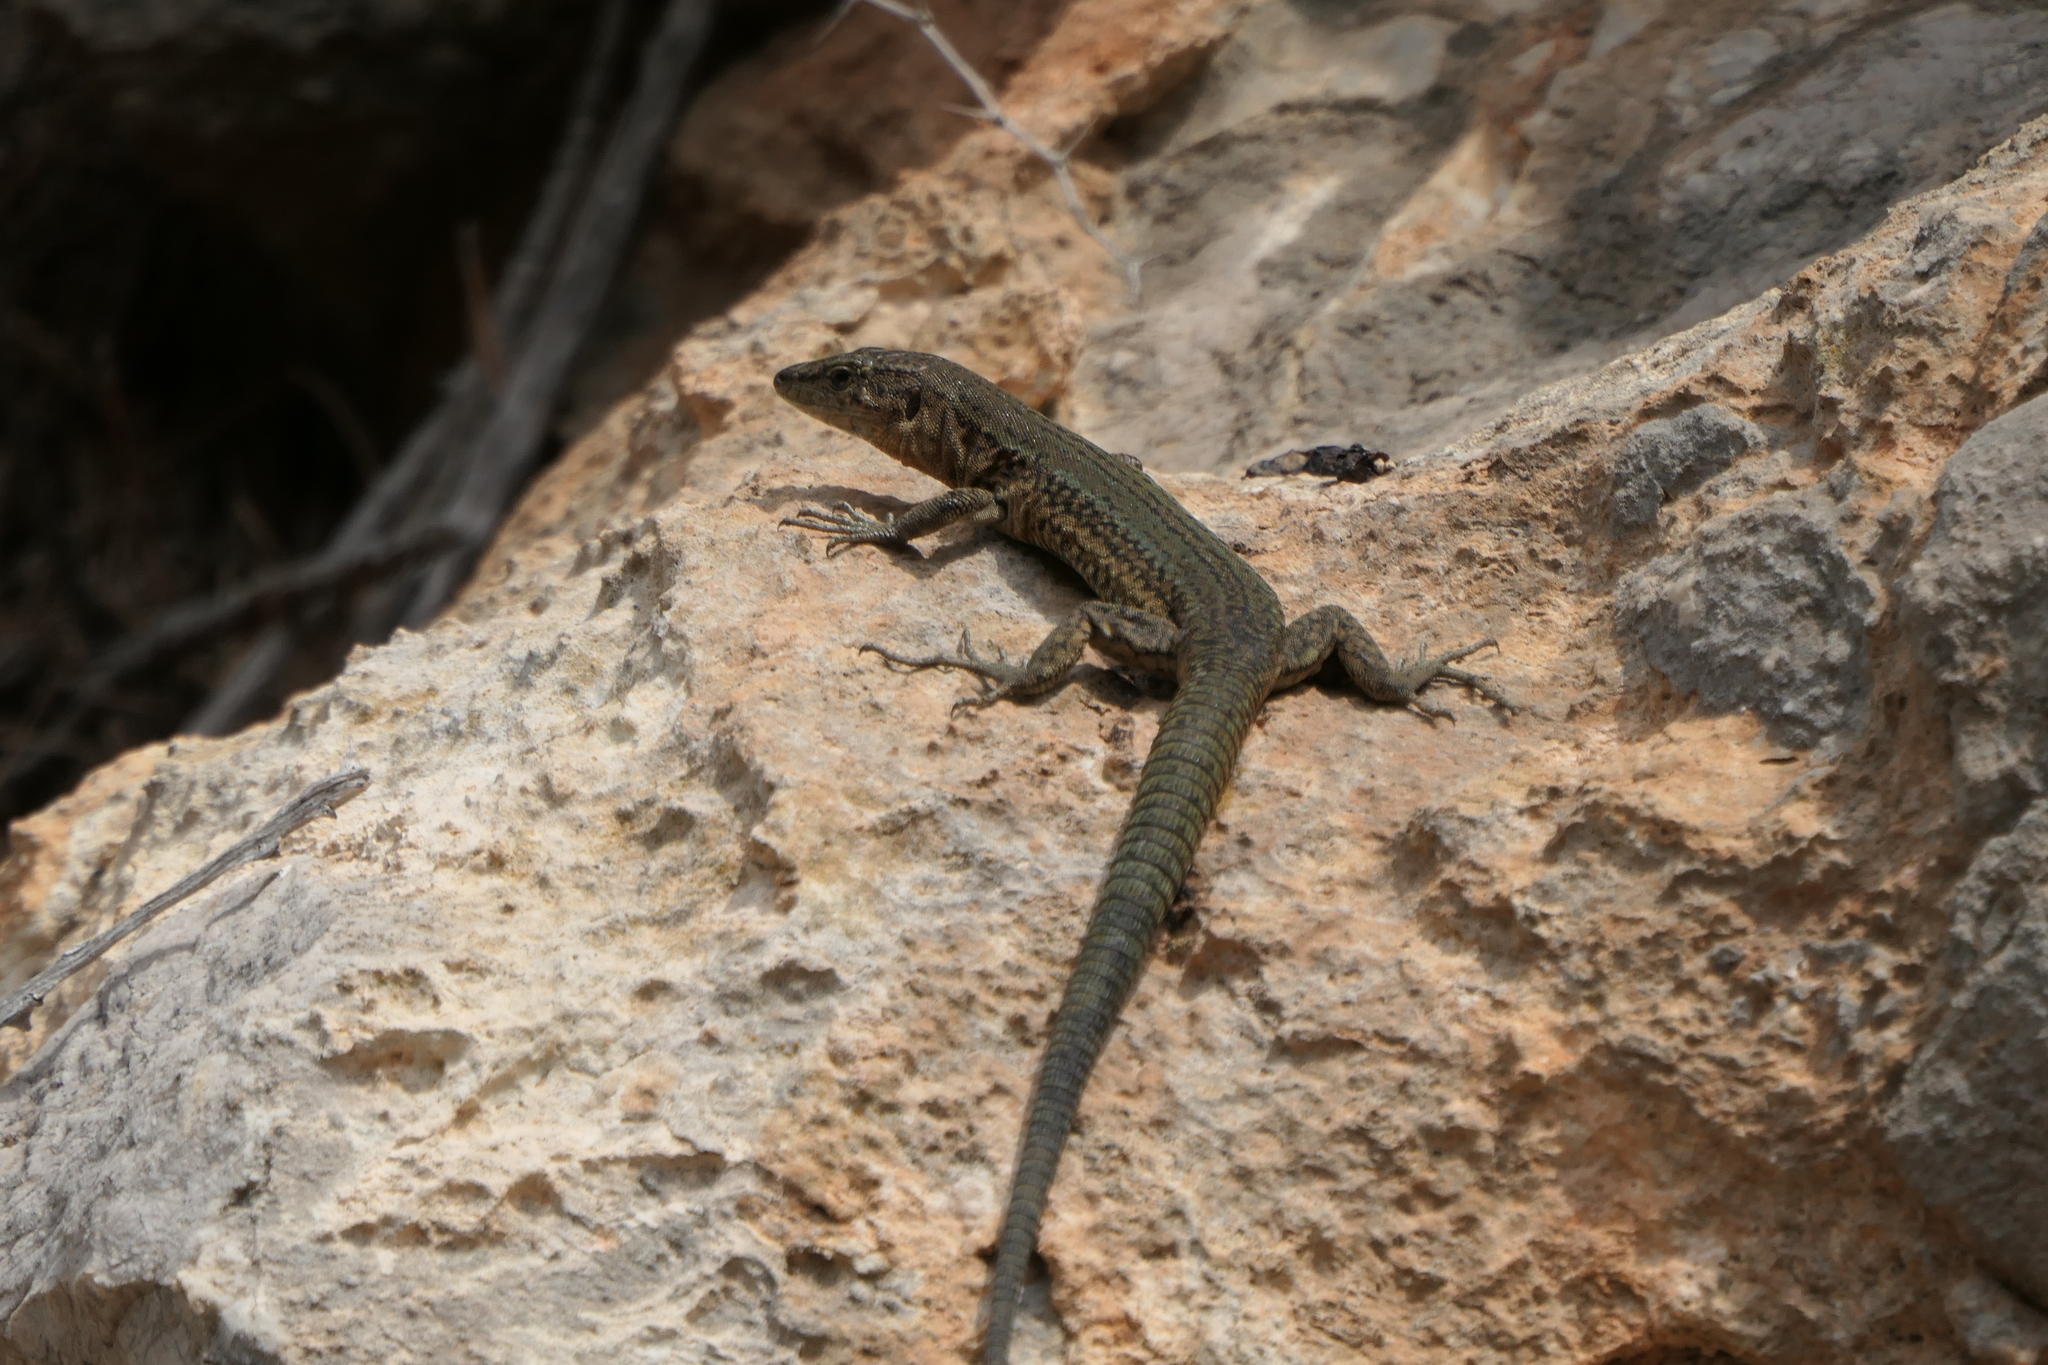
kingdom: Animalia
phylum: Chordata
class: Squamata
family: Lacertidae
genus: Podarcis
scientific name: Podarcis lilfordi
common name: Belearic lizard
